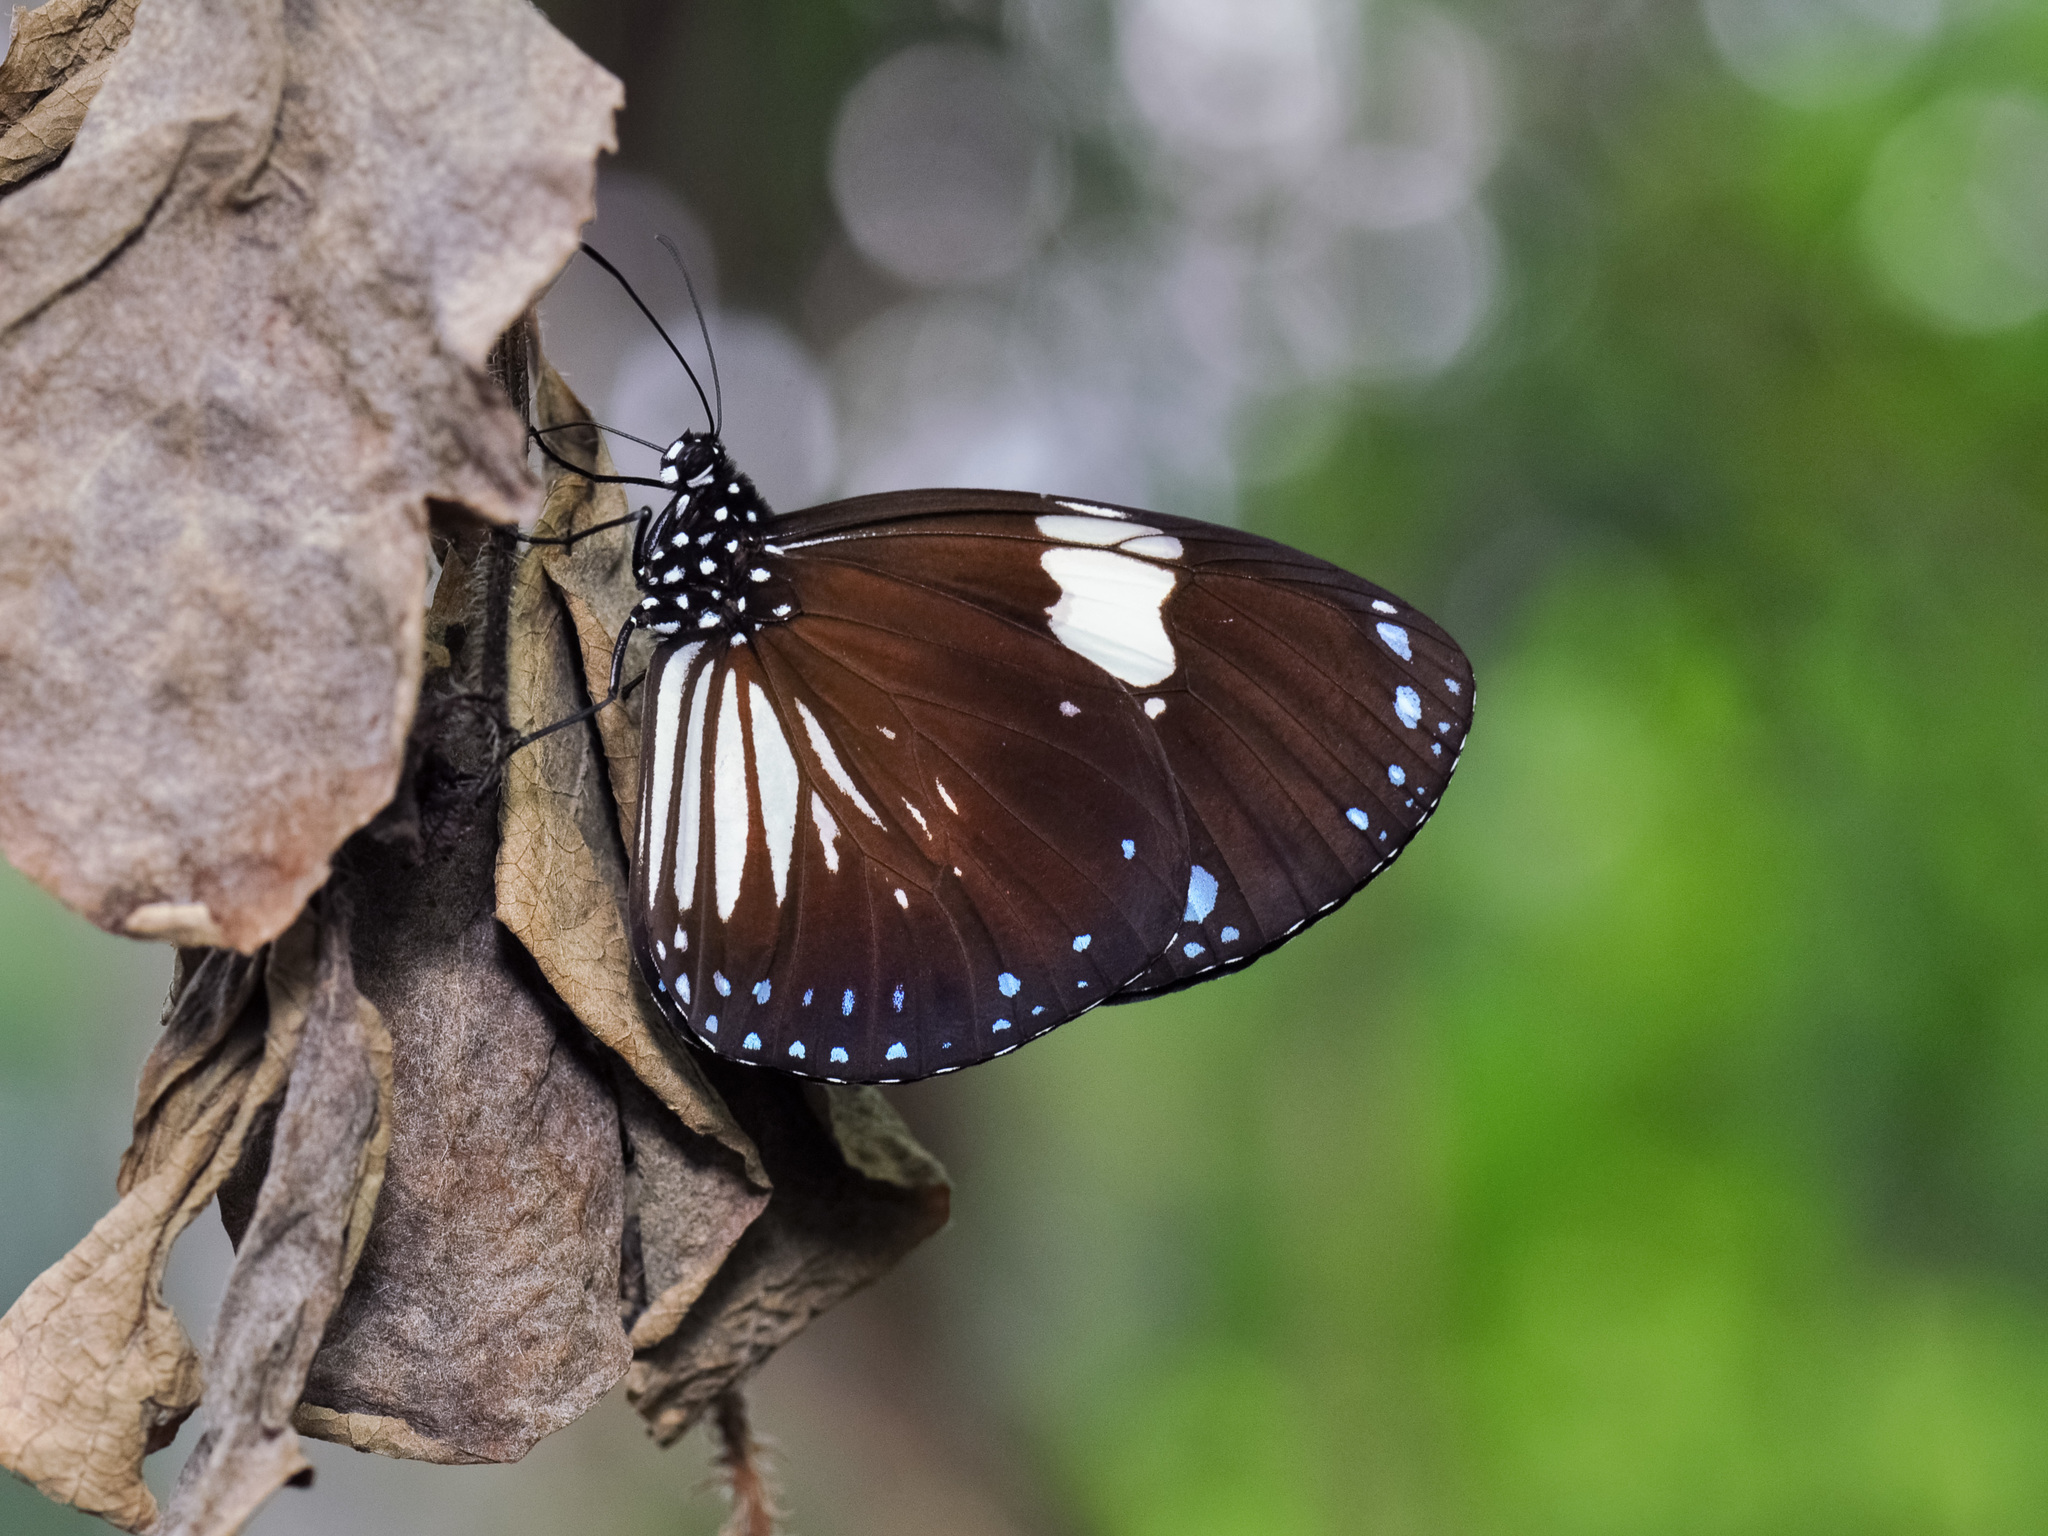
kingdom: Animalia
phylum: Arthropoda
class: Insecta
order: Lepidoptera
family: Nymphalidae
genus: Euploea
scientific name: Euploea radamanthus
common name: Magpie crow butterfly
